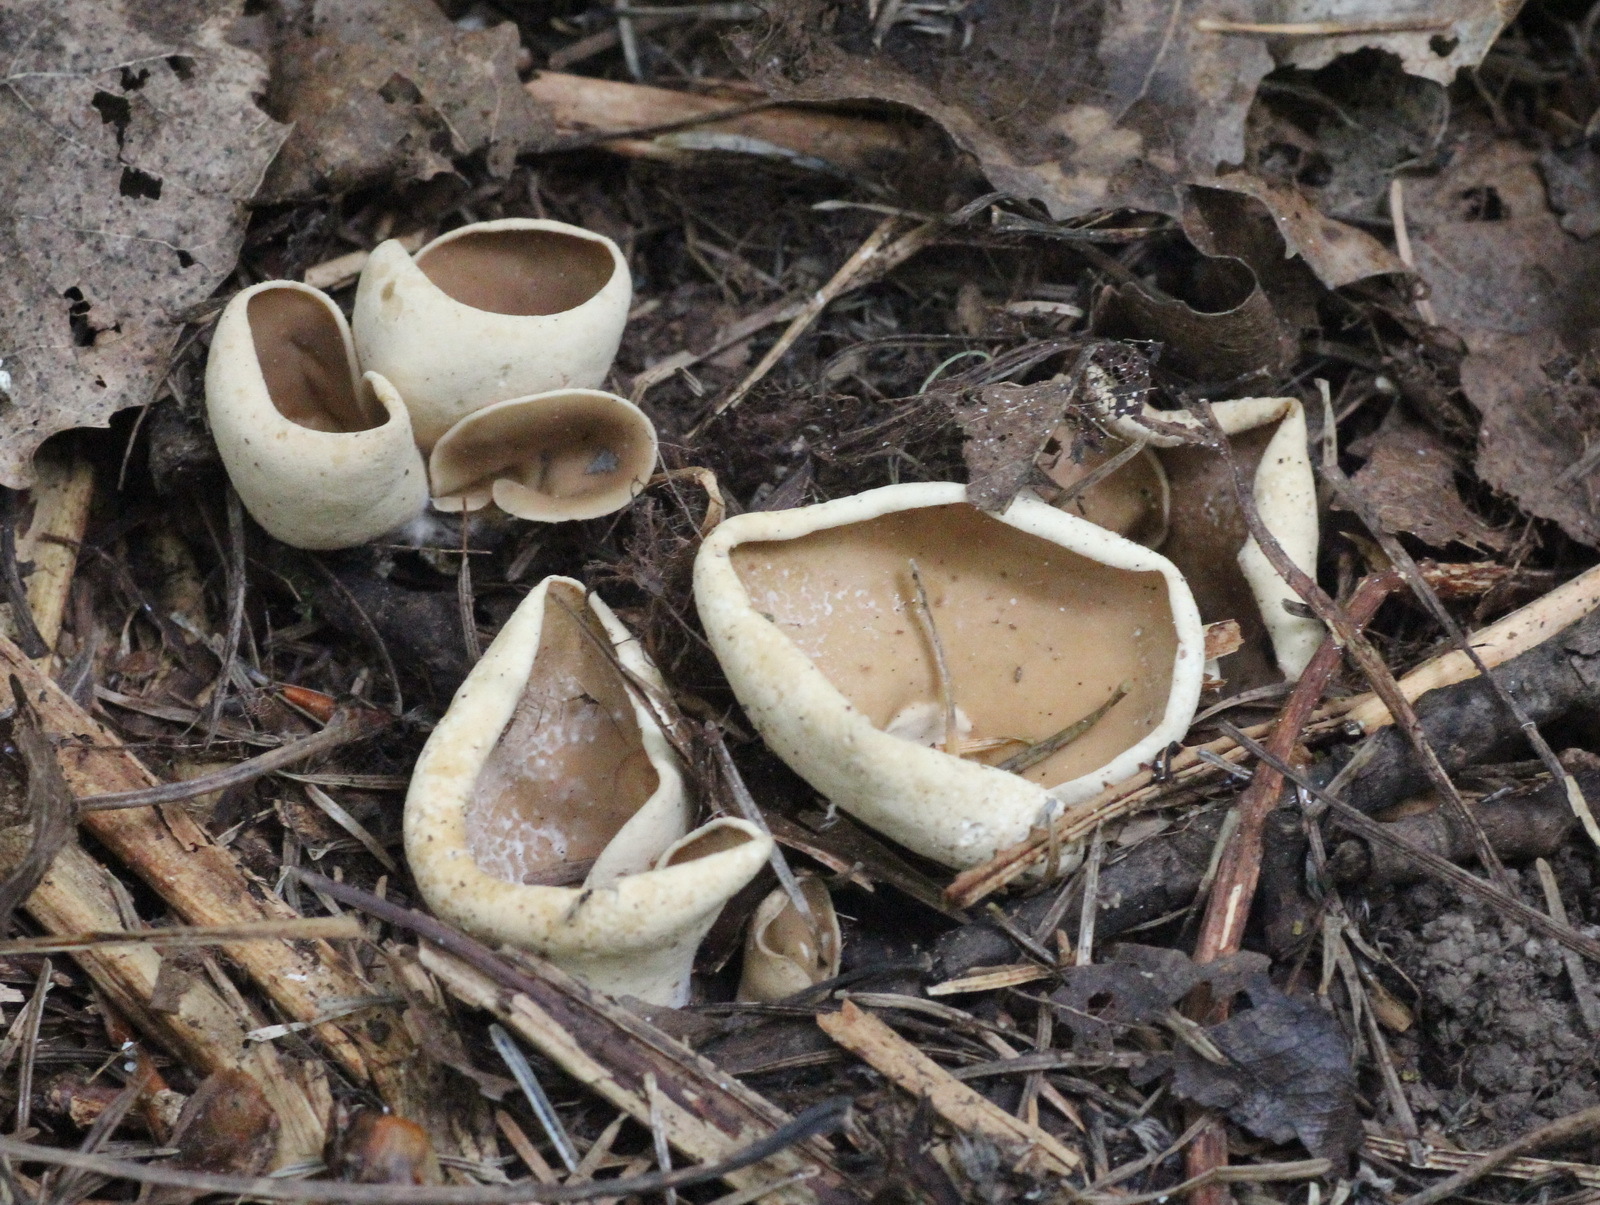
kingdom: Fungi
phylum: Ascomycota
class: Pezizomycetes
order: Pezizales
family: Otideaceae
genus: Otidea
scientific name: Otidea alutacea
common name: Tan ear
